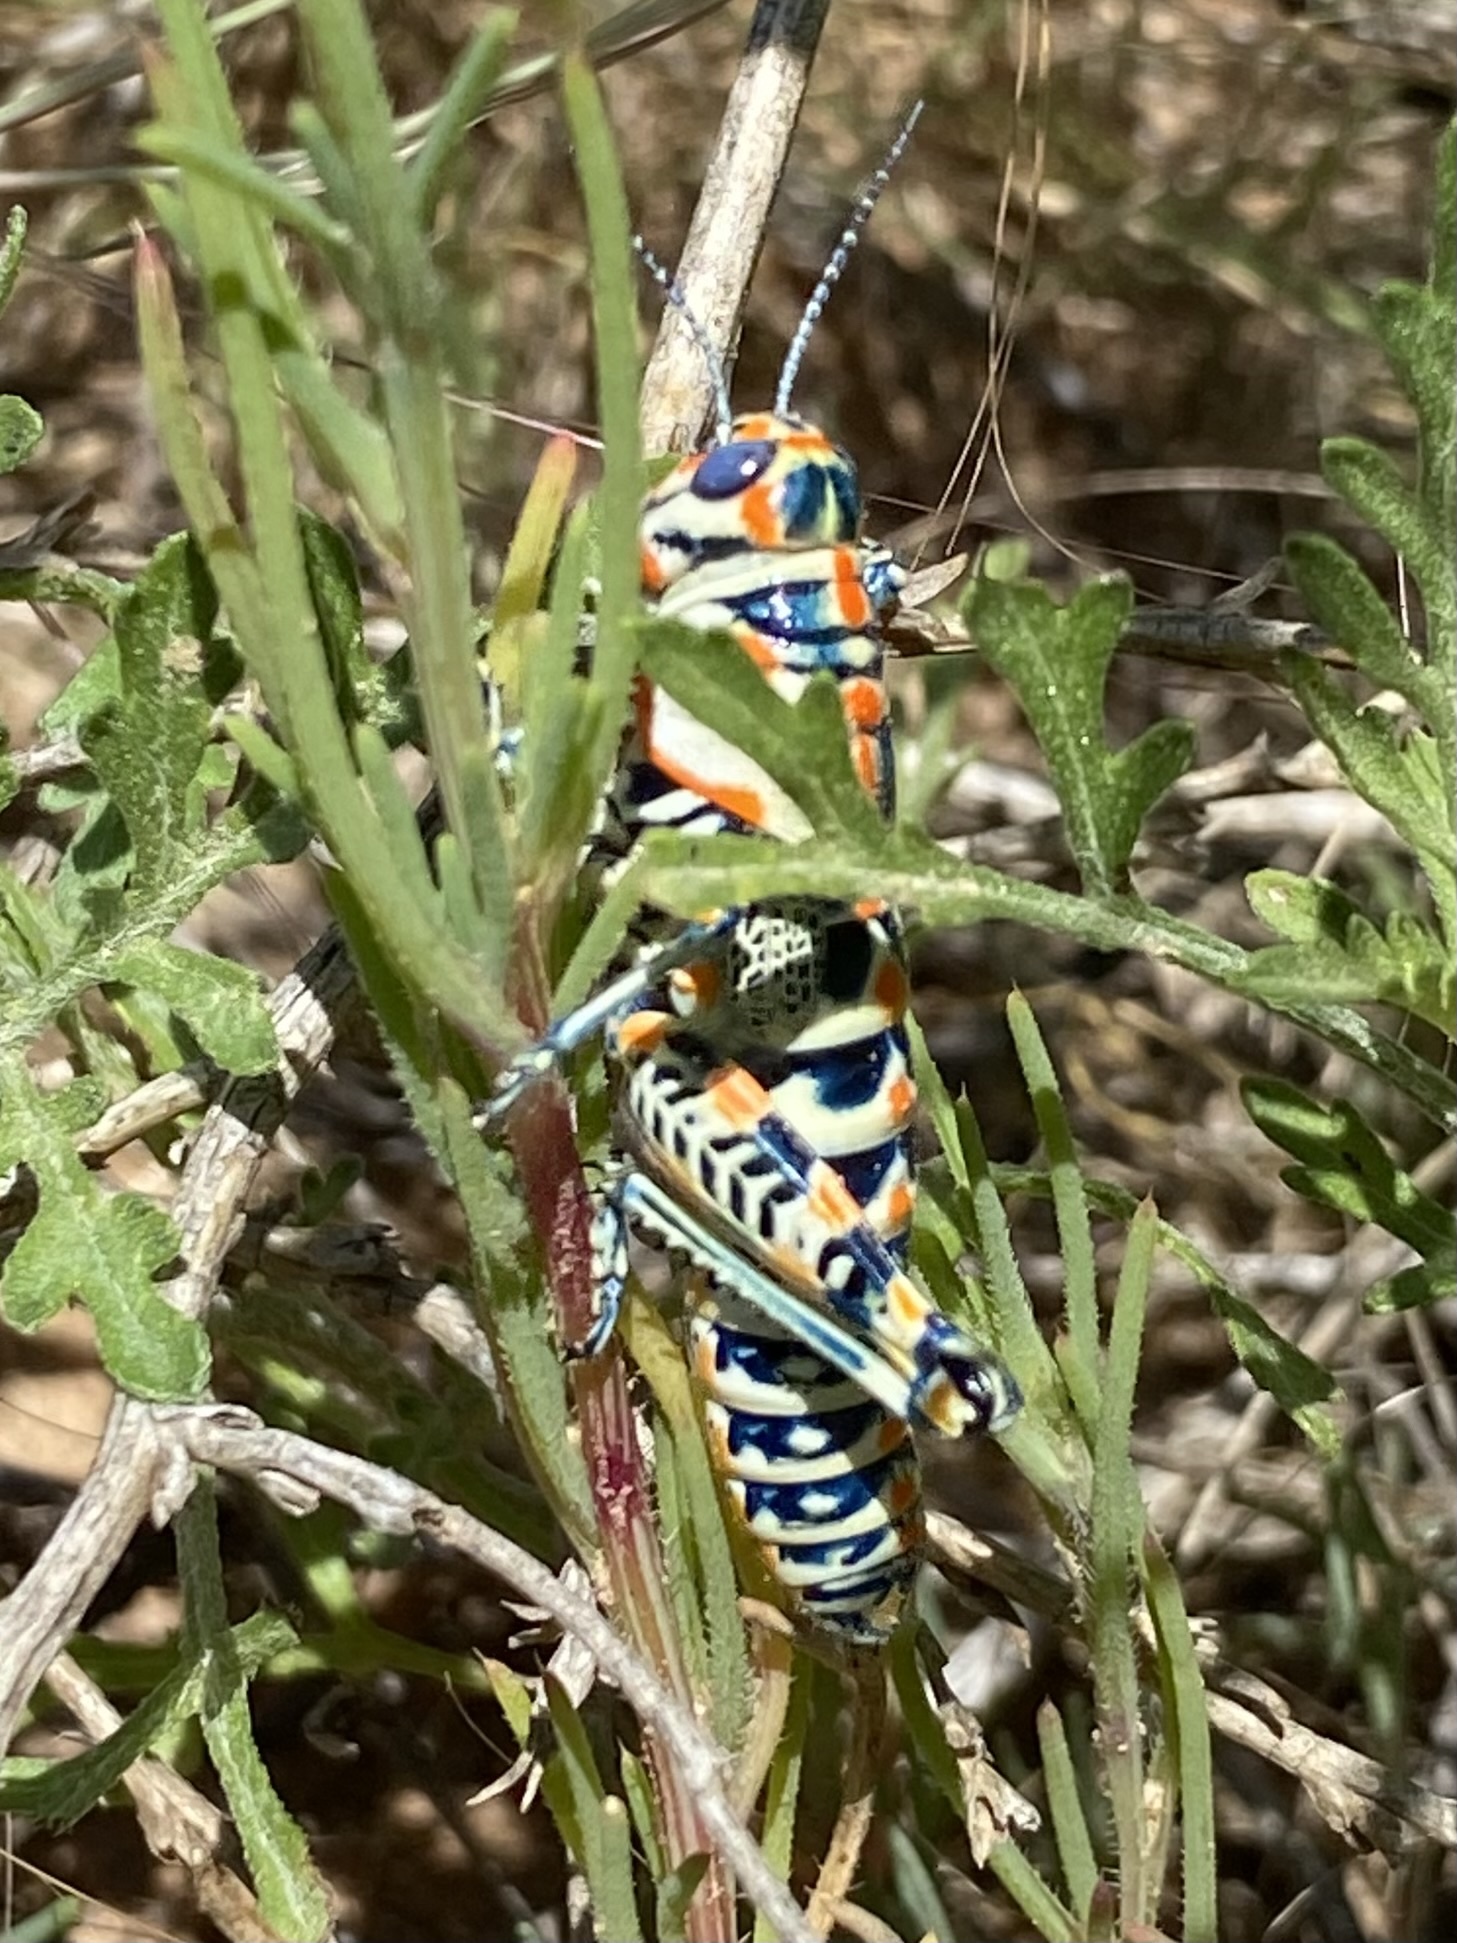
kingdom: Animalia
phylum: Arthropoda
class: Insecta
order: Orthoptera
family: Acrididae
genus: Dactylotum
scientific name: Dactylotum bicolor
